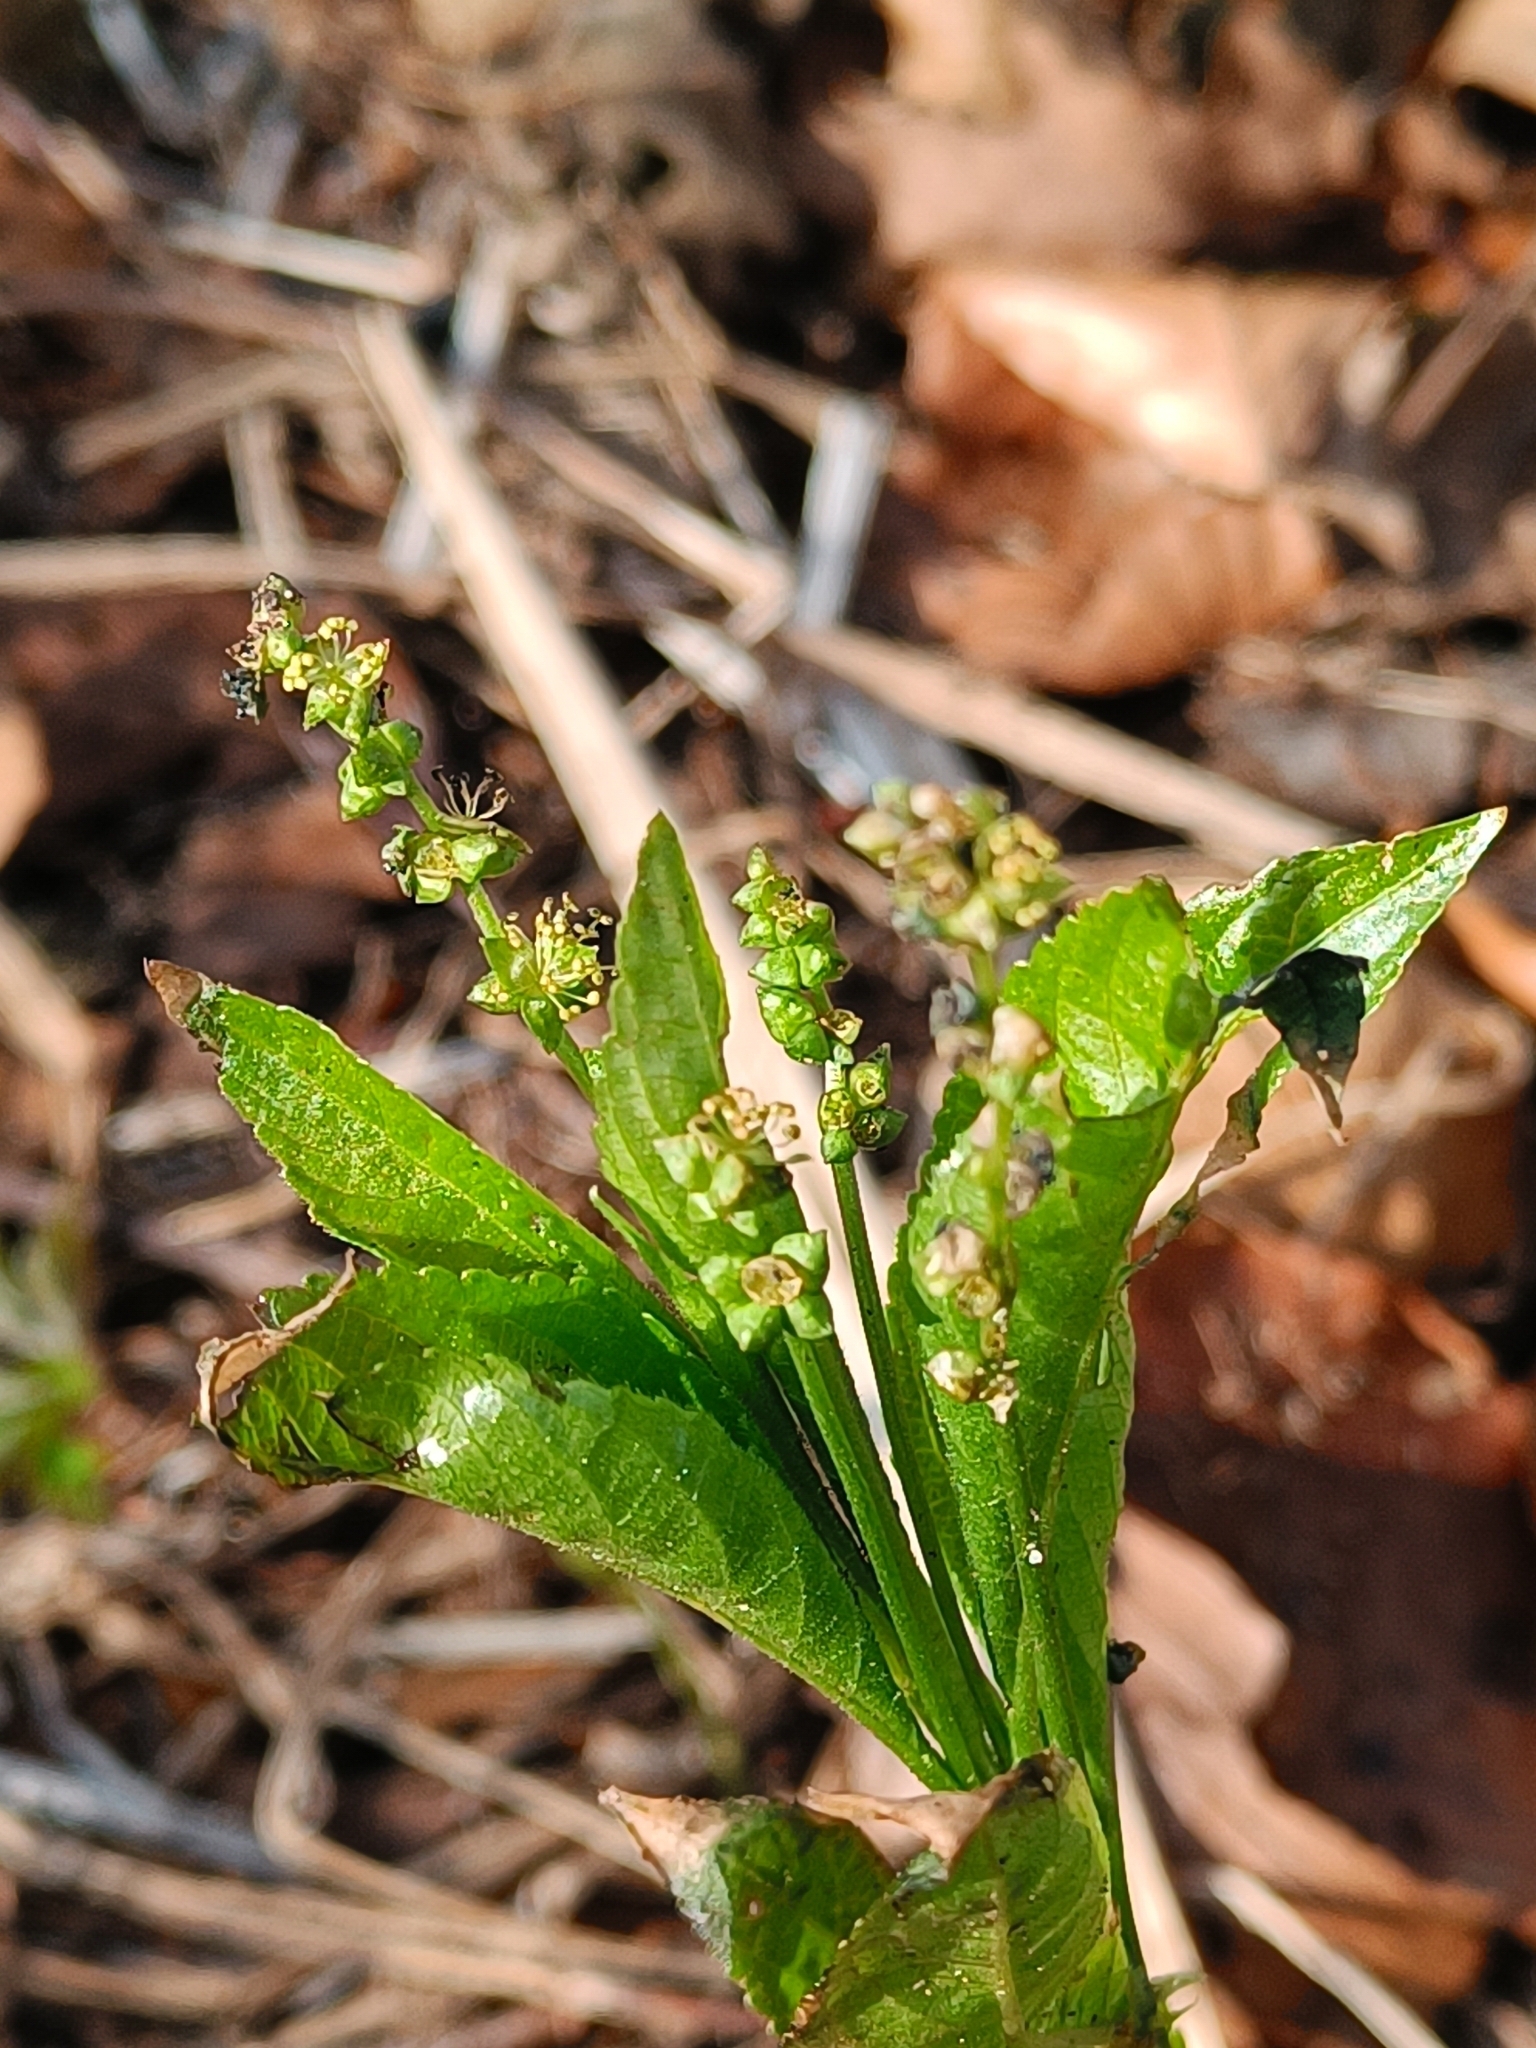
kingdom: Plantae
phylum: Tracheophyta
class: Magnoliopsida
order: Malpighiales
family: Euphorbiaceae
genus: Mercurialis
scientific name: Mercurialis perennis
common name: Dog mercury
